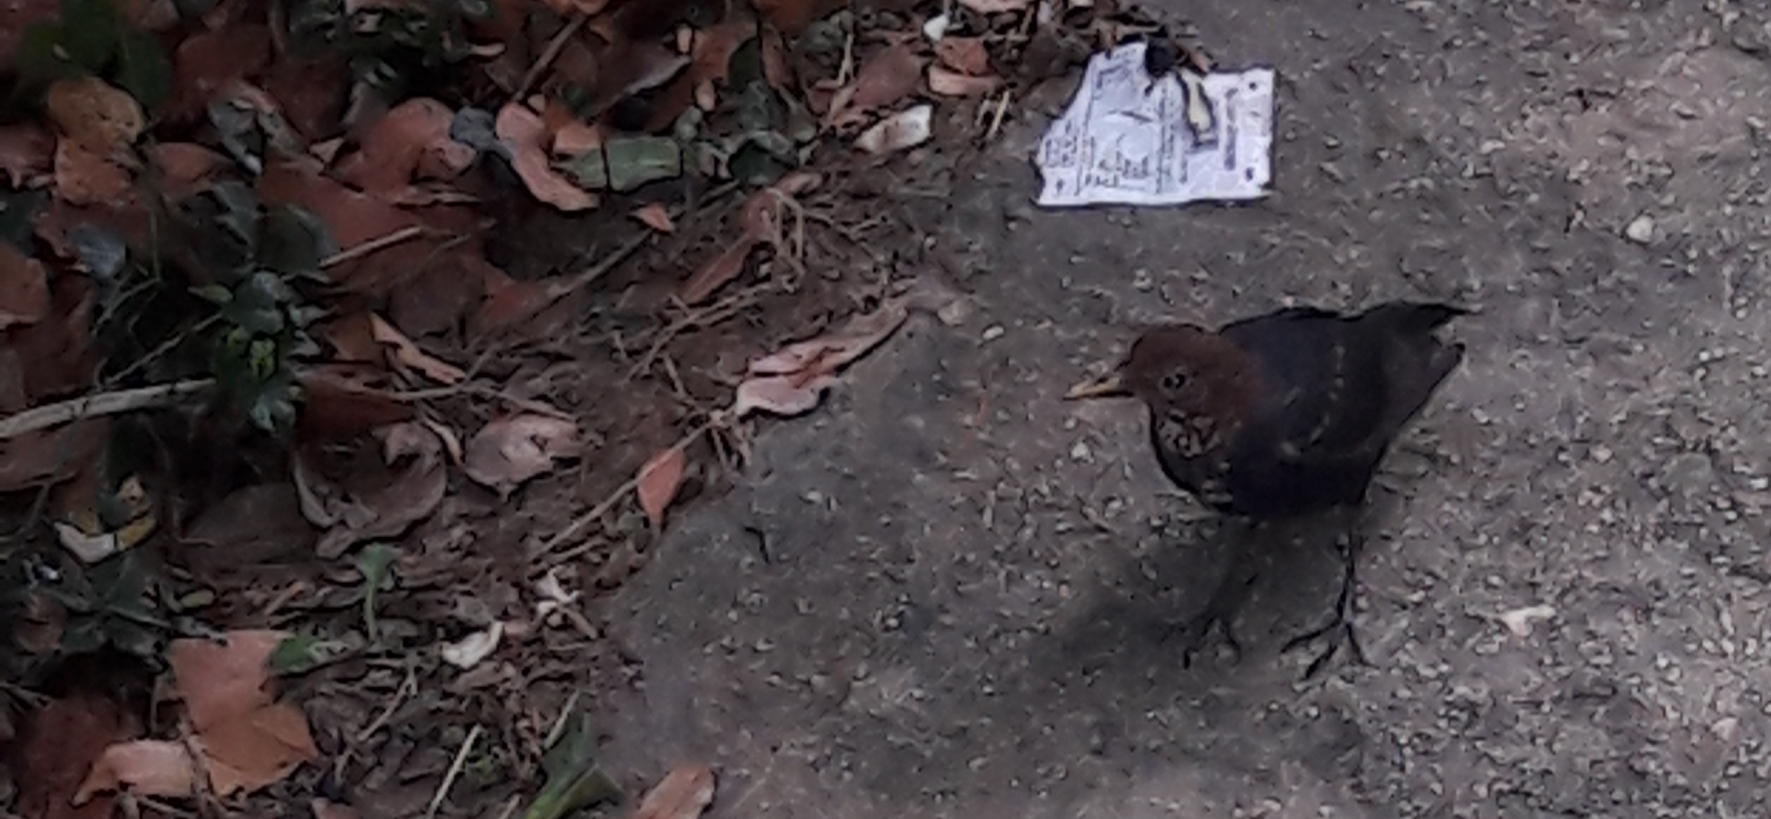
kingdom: Animalia
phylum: Chordata
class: Aves
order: Passeriformes
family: Turdidae
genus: Turdus
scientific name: Turdus merula
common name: Common blackbird
